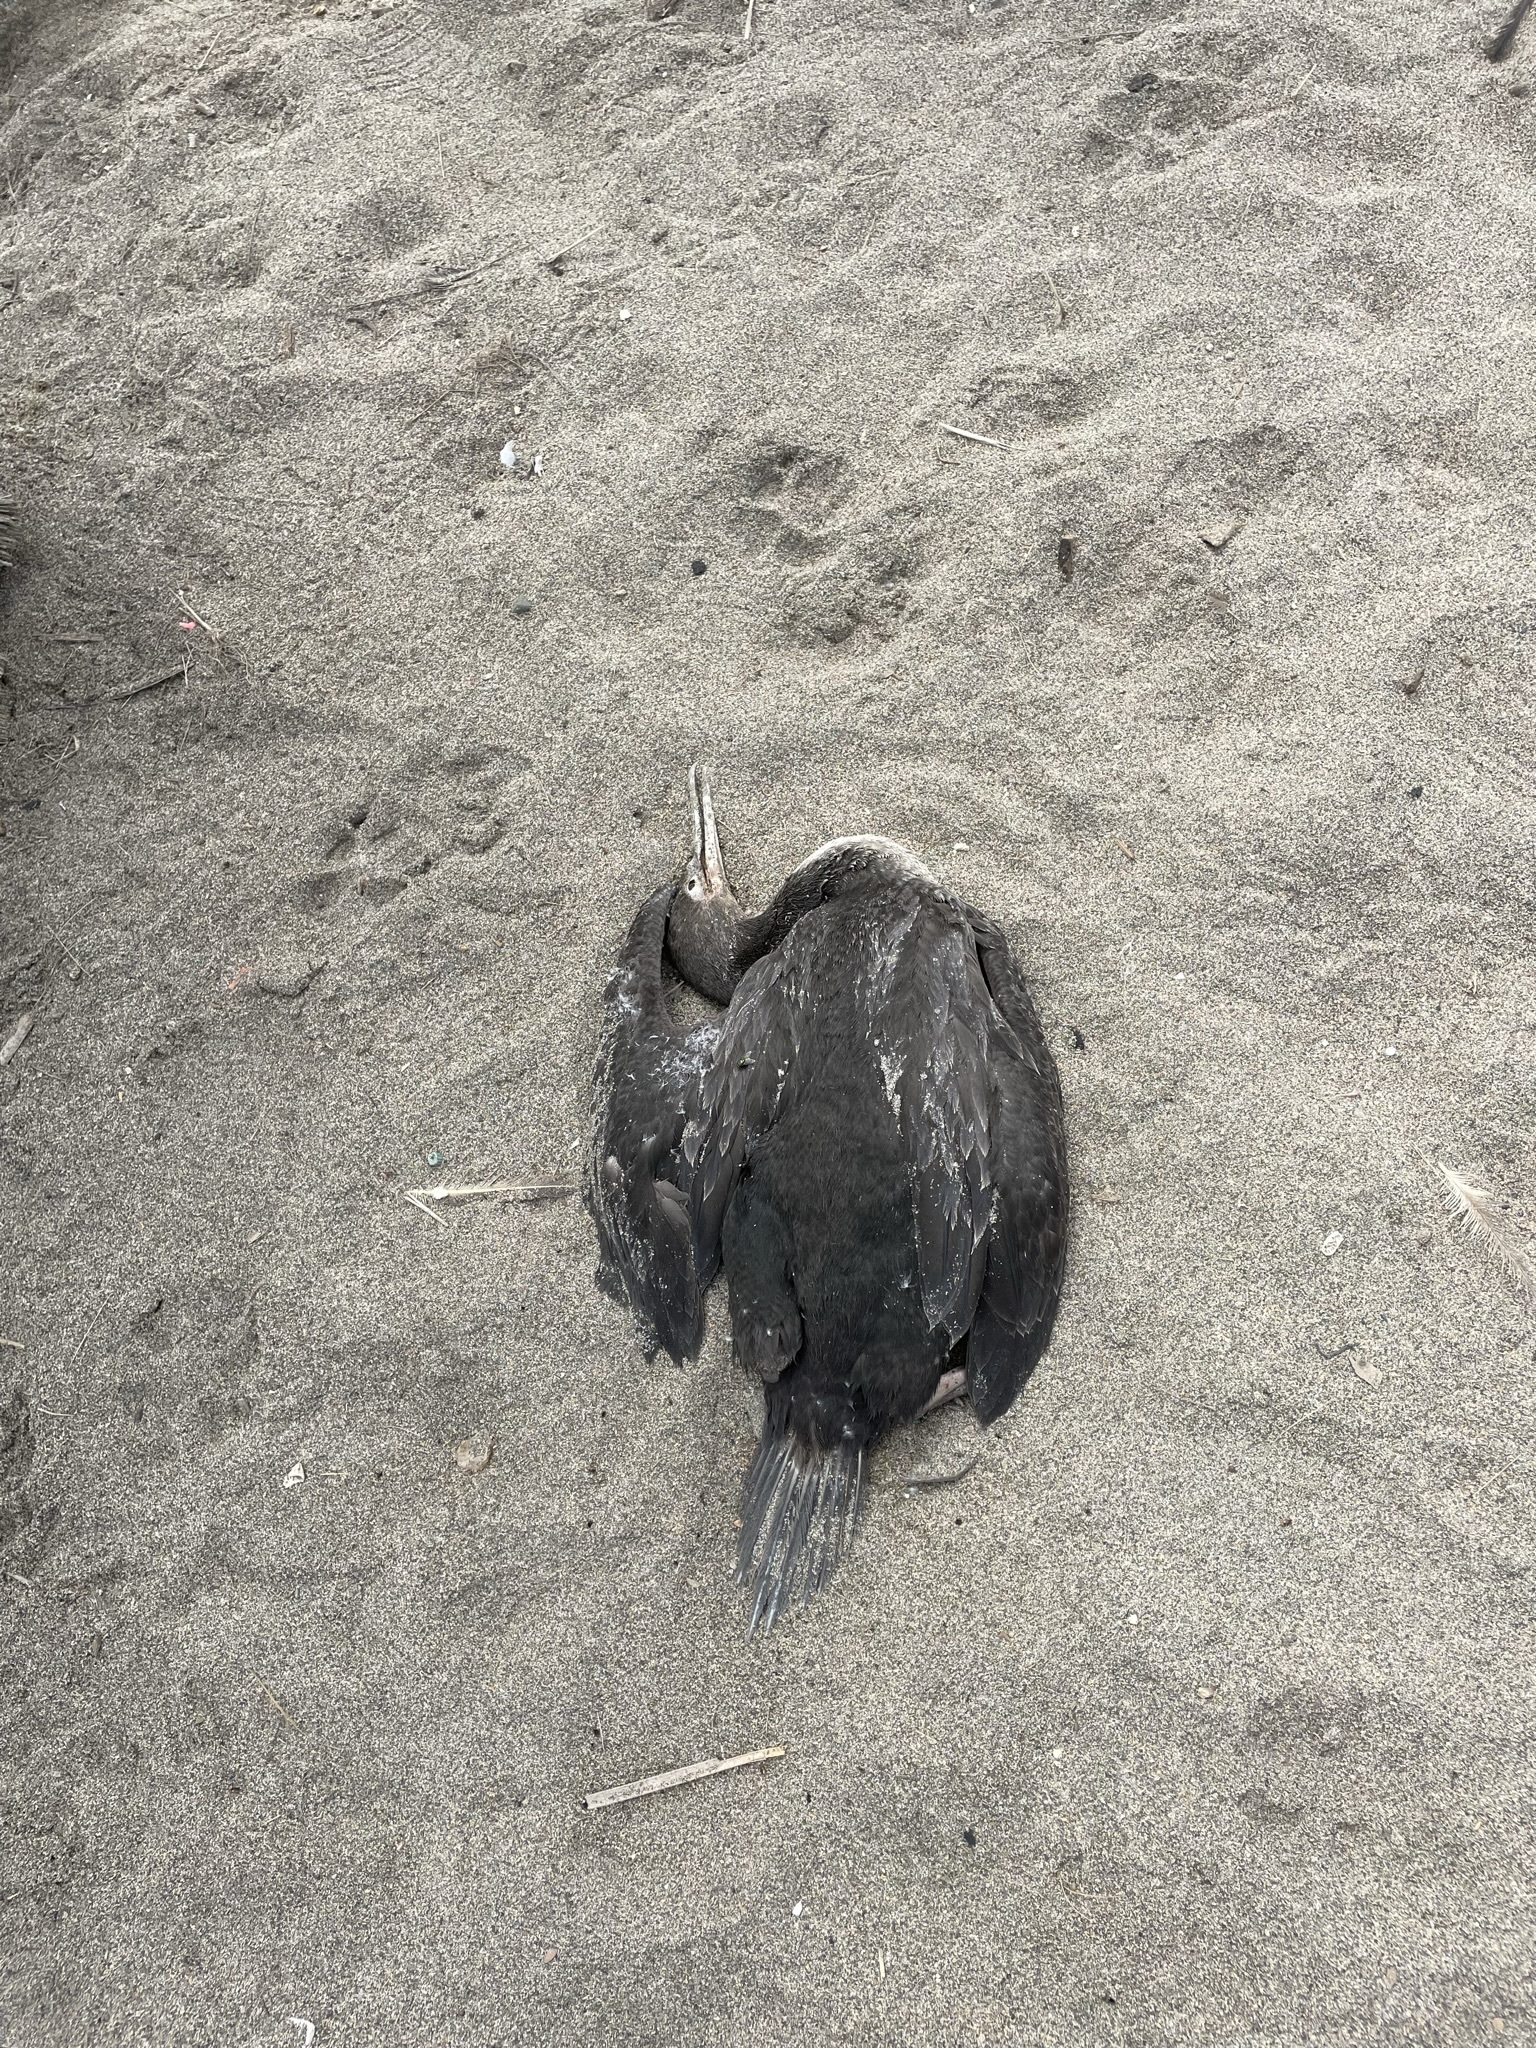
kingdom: Animalia
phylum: Chordata
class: Aves
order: Suliformes
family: Phalacrocoracidae
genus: Leucocarbo
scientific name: Leucocarbo bougainvillii
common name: Guanay cormorant
